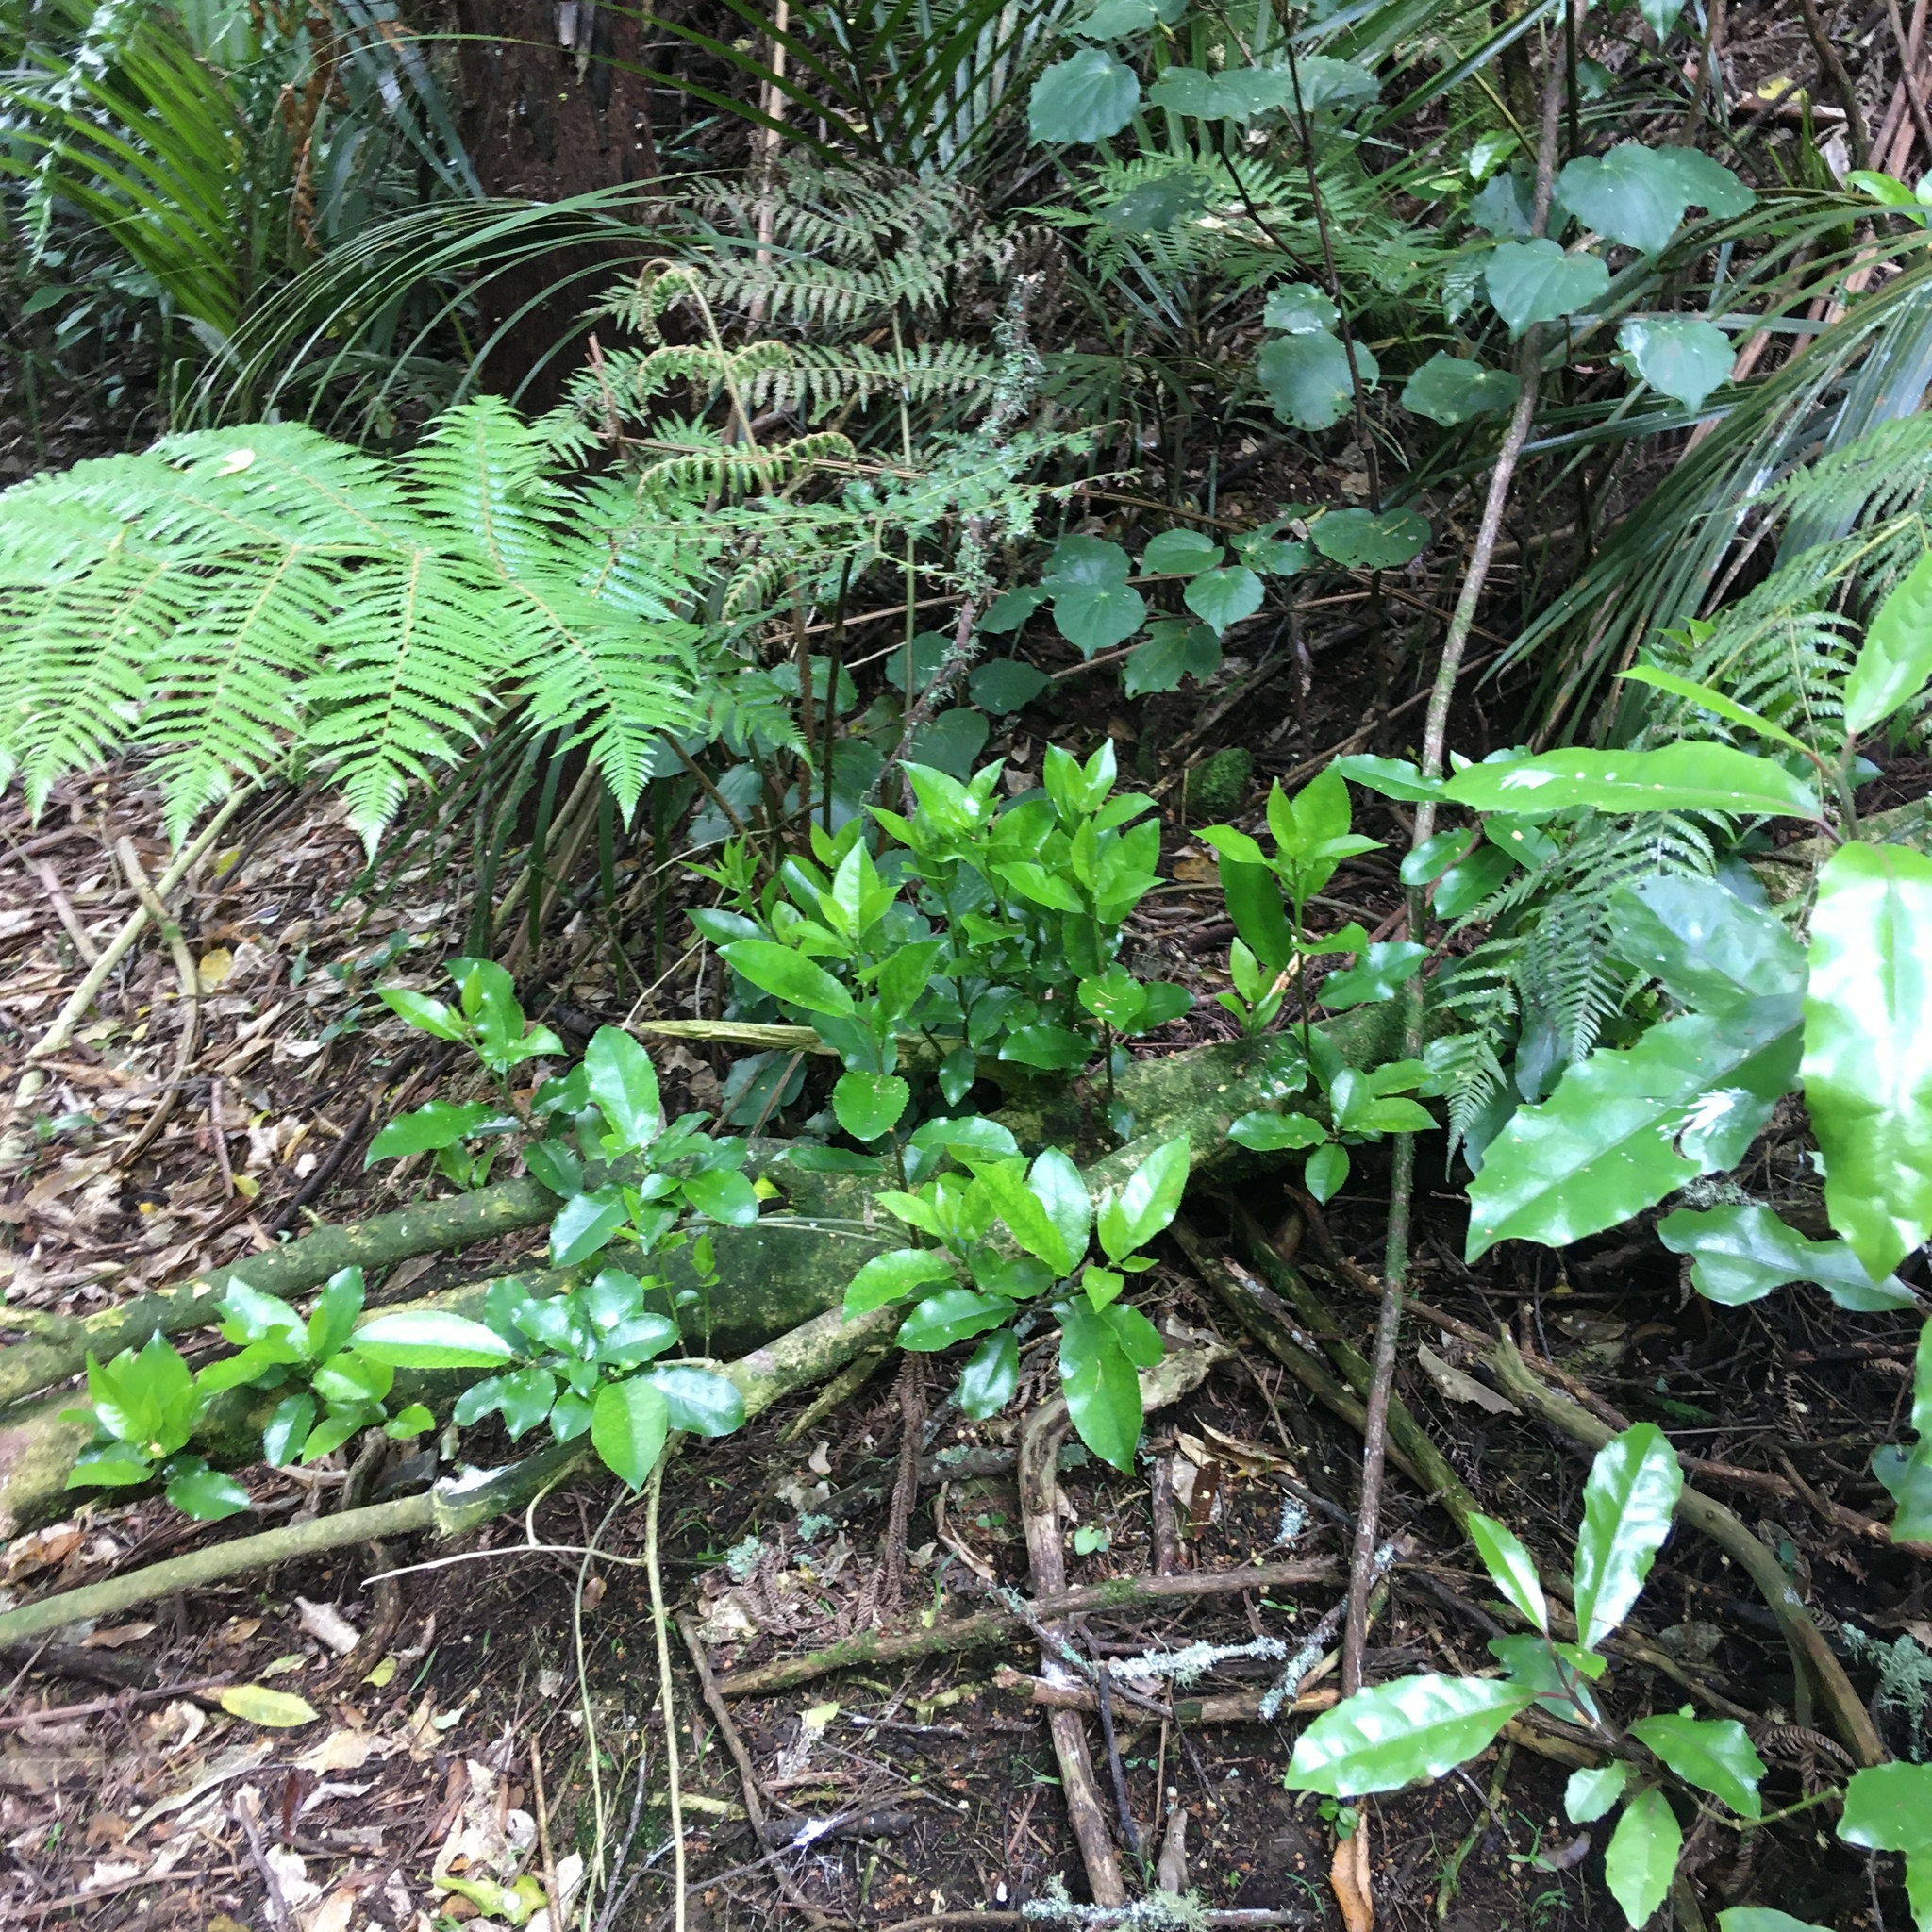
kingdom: Plantae
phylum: Tracheophyta
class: Magnoliopsida
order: Malpighiales
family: Violaceae
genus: Melicytus
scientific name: Melicytus ramiflorus
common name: Mahoe
